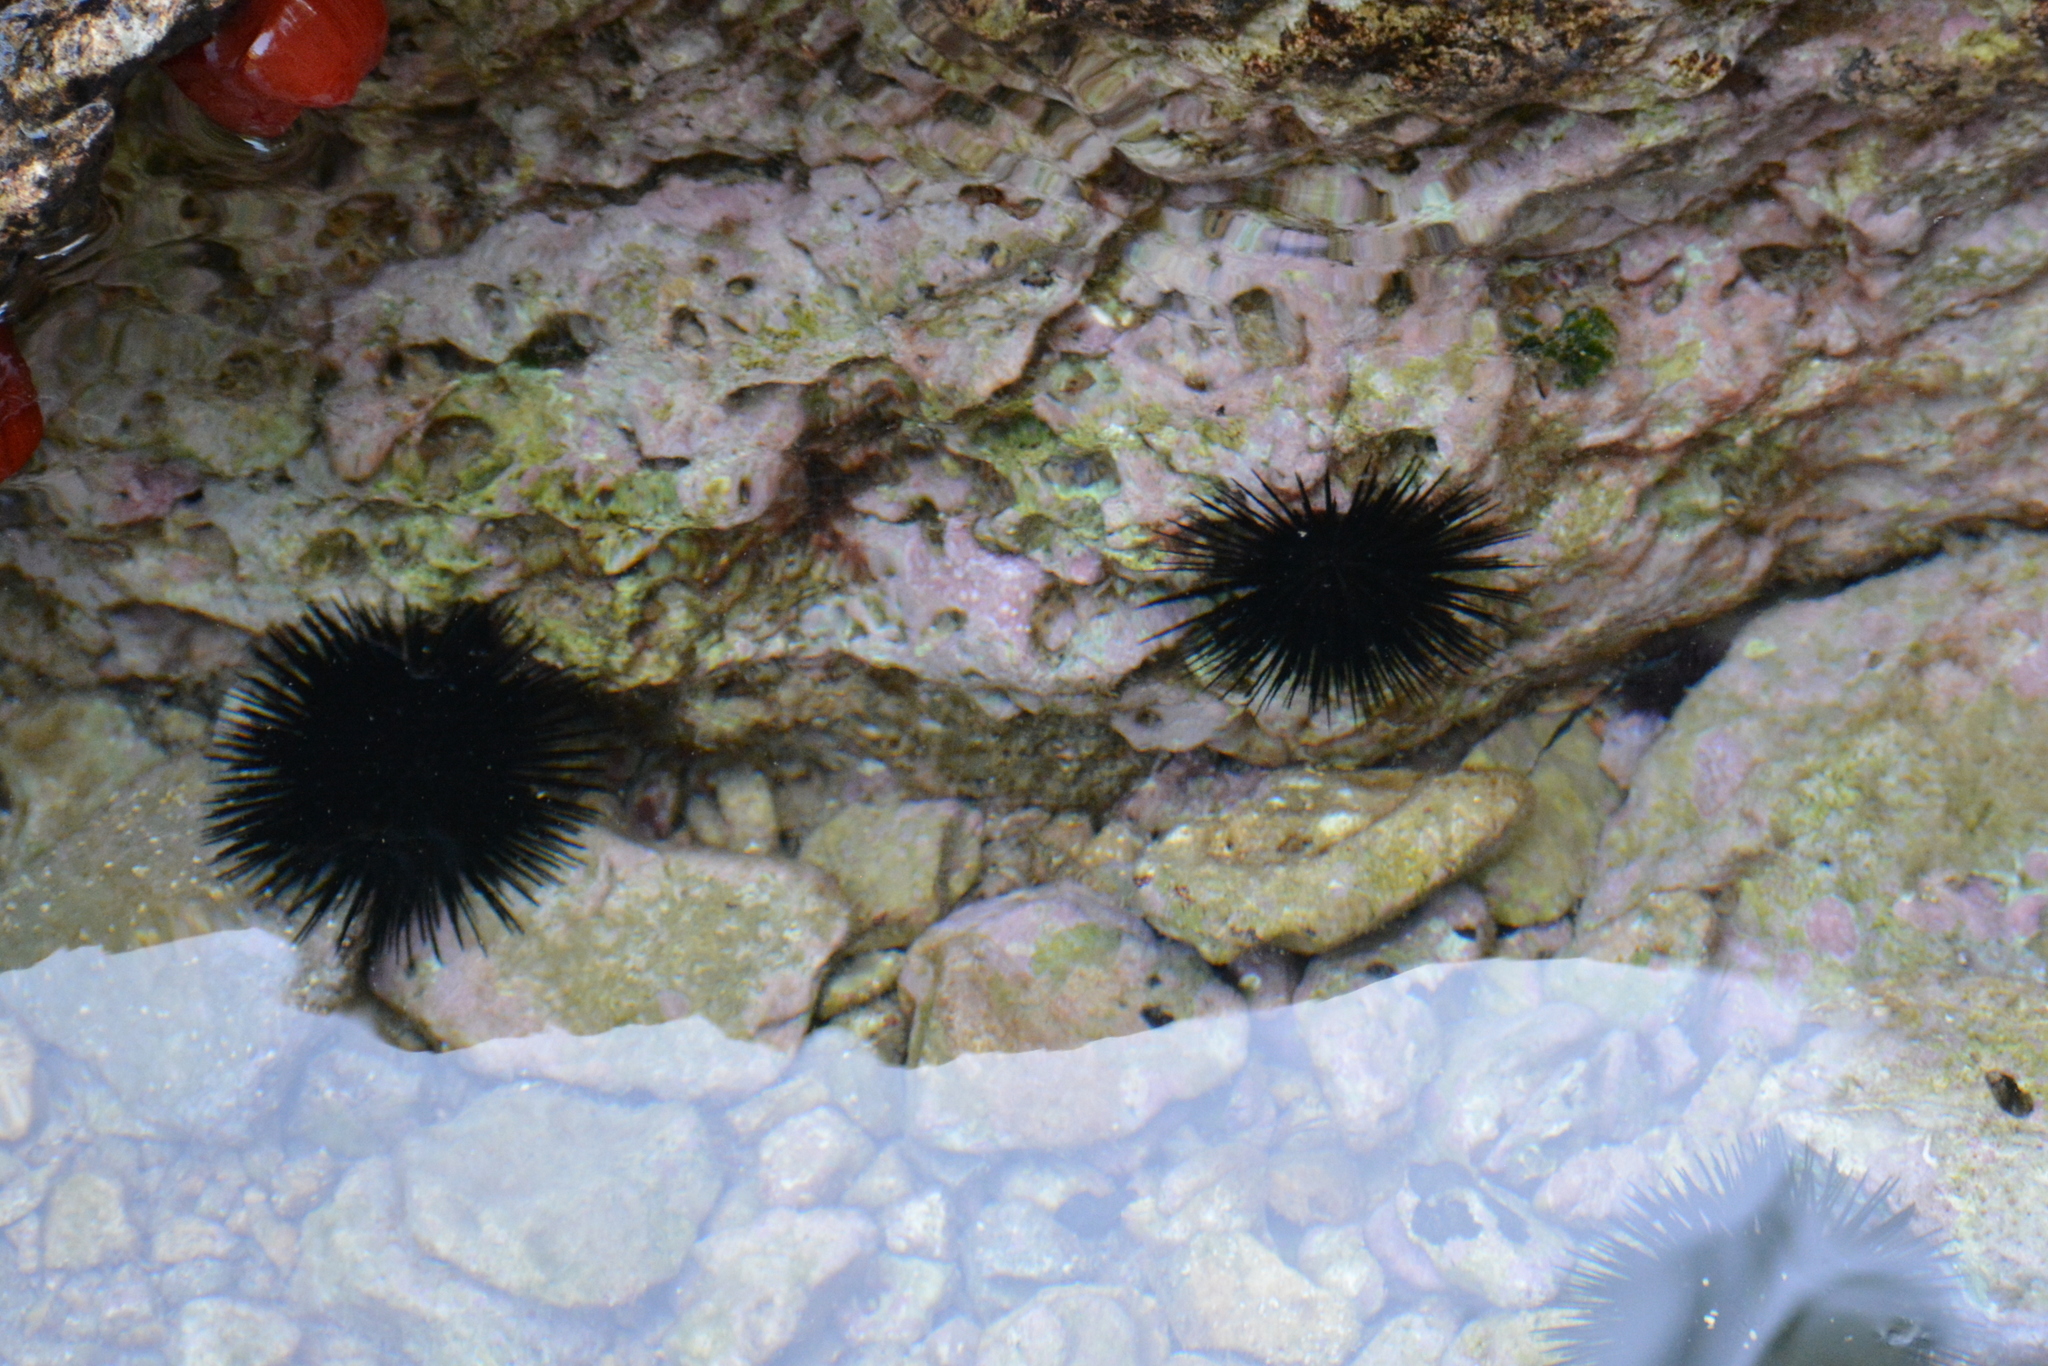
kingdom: Animalia
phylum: Echinodermata
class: Echinoidea
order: Arbacioida
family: Arbaciidae
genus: Arbacia
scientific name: Arbacia lixula
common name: Black sea urchin
